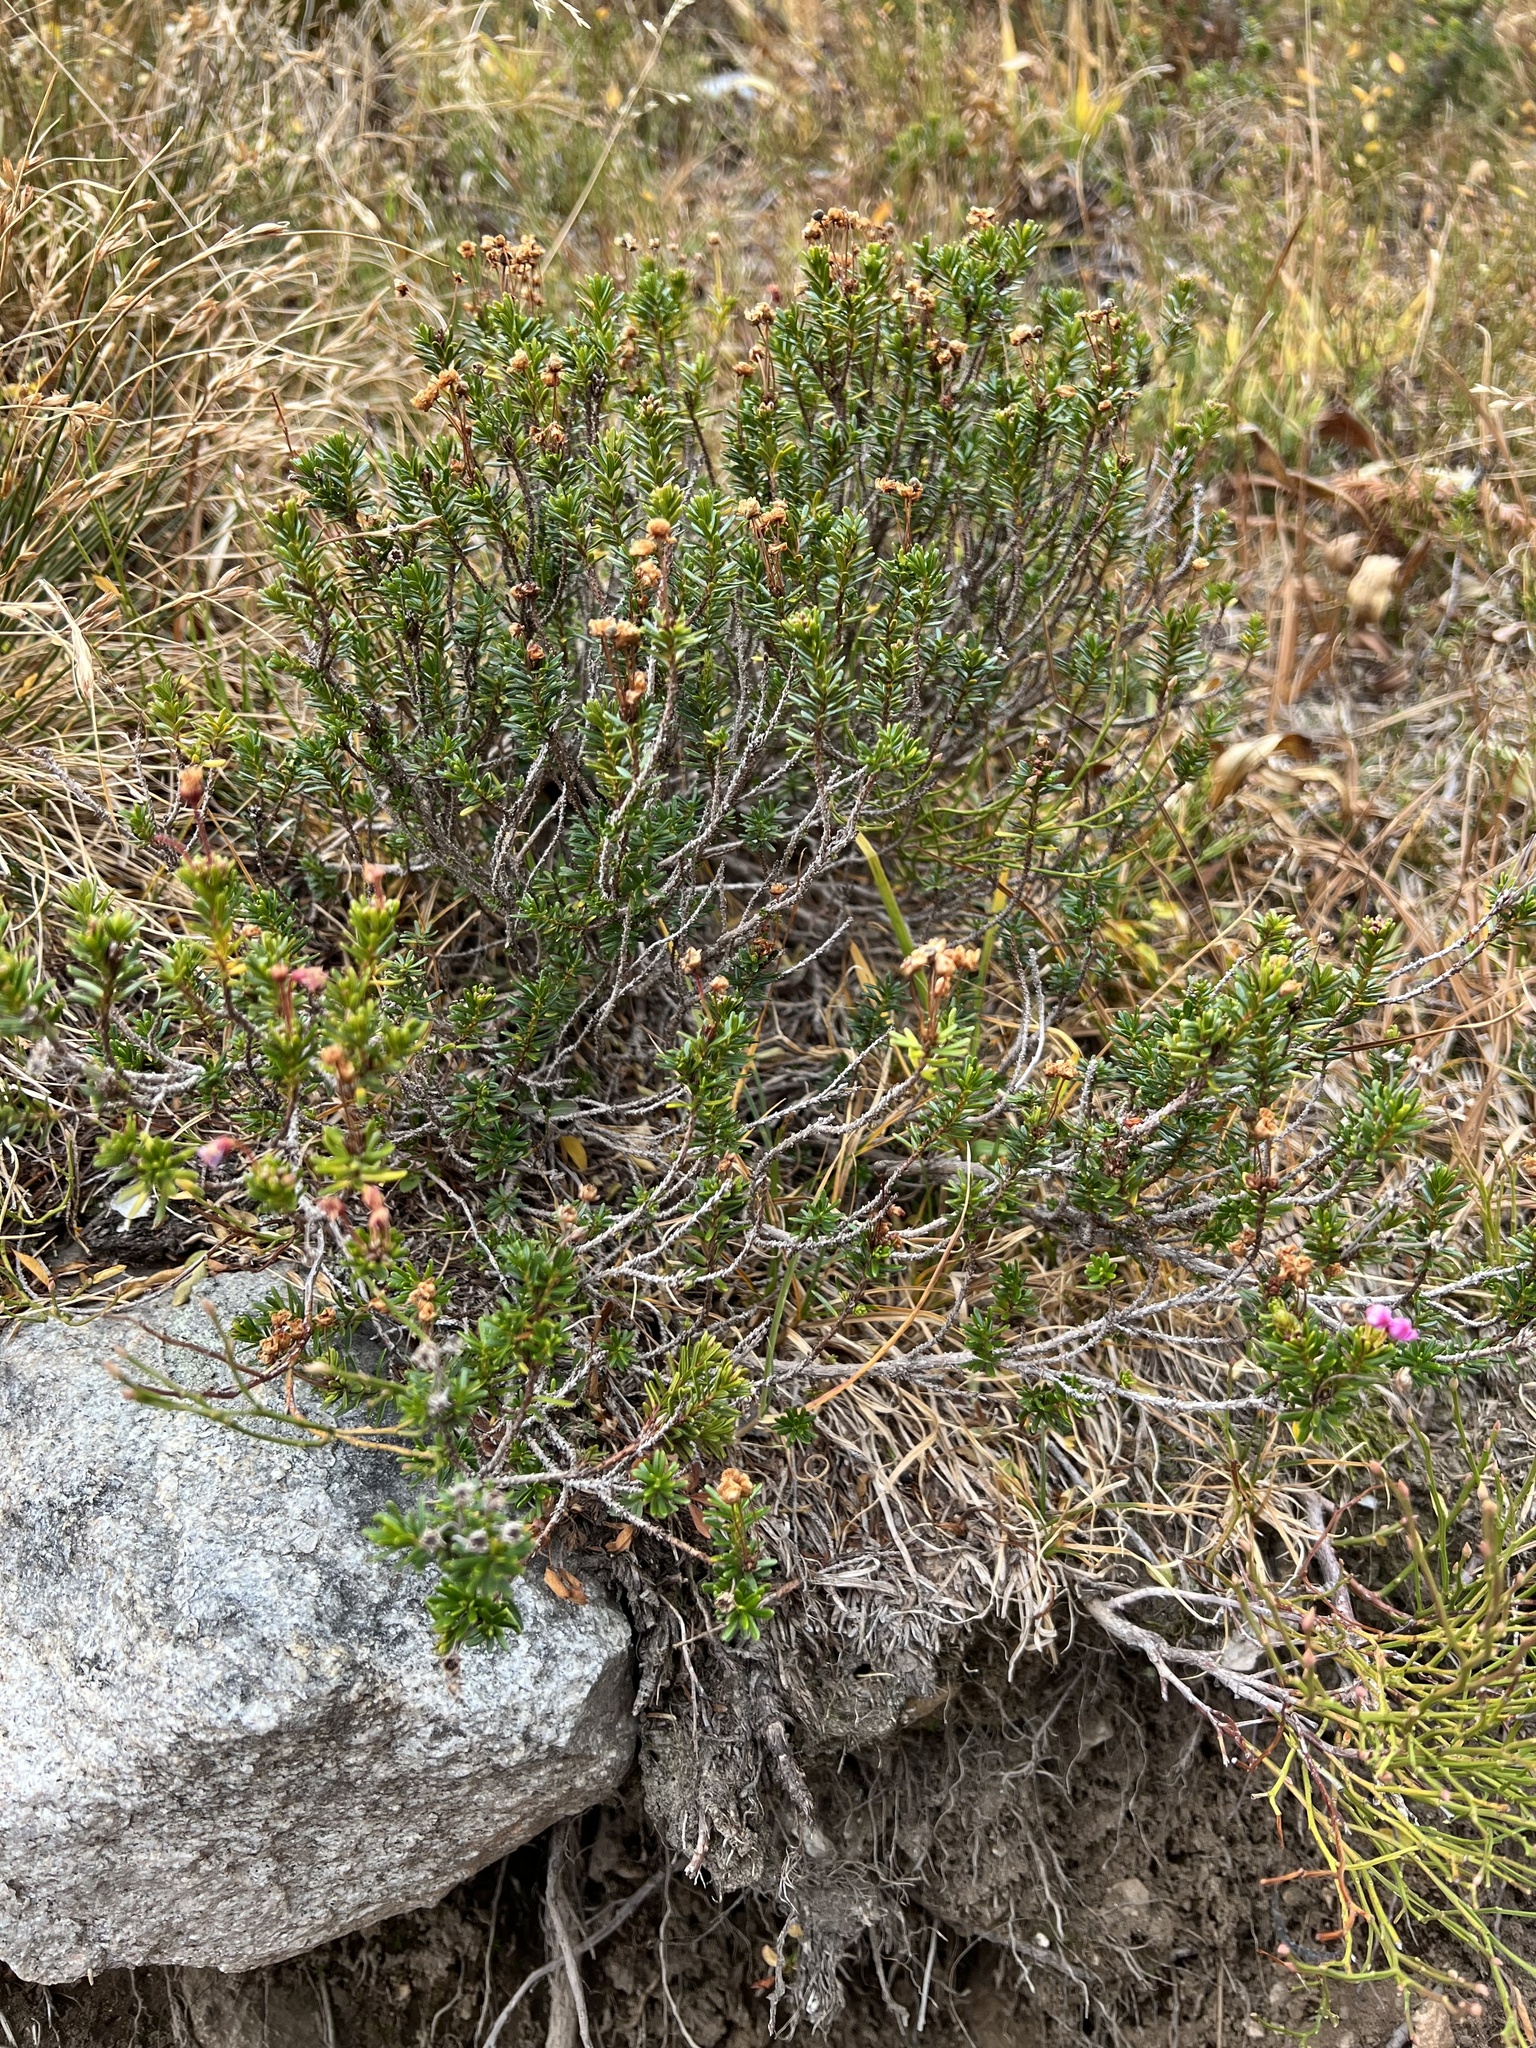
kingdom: Plantae
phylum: Tracheophyta
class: Magnoliopsida
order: Ericales
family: Ericaceae
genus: Phyllodoce
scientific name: Phyllodoce empetriformis
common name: Pink mountain heather
